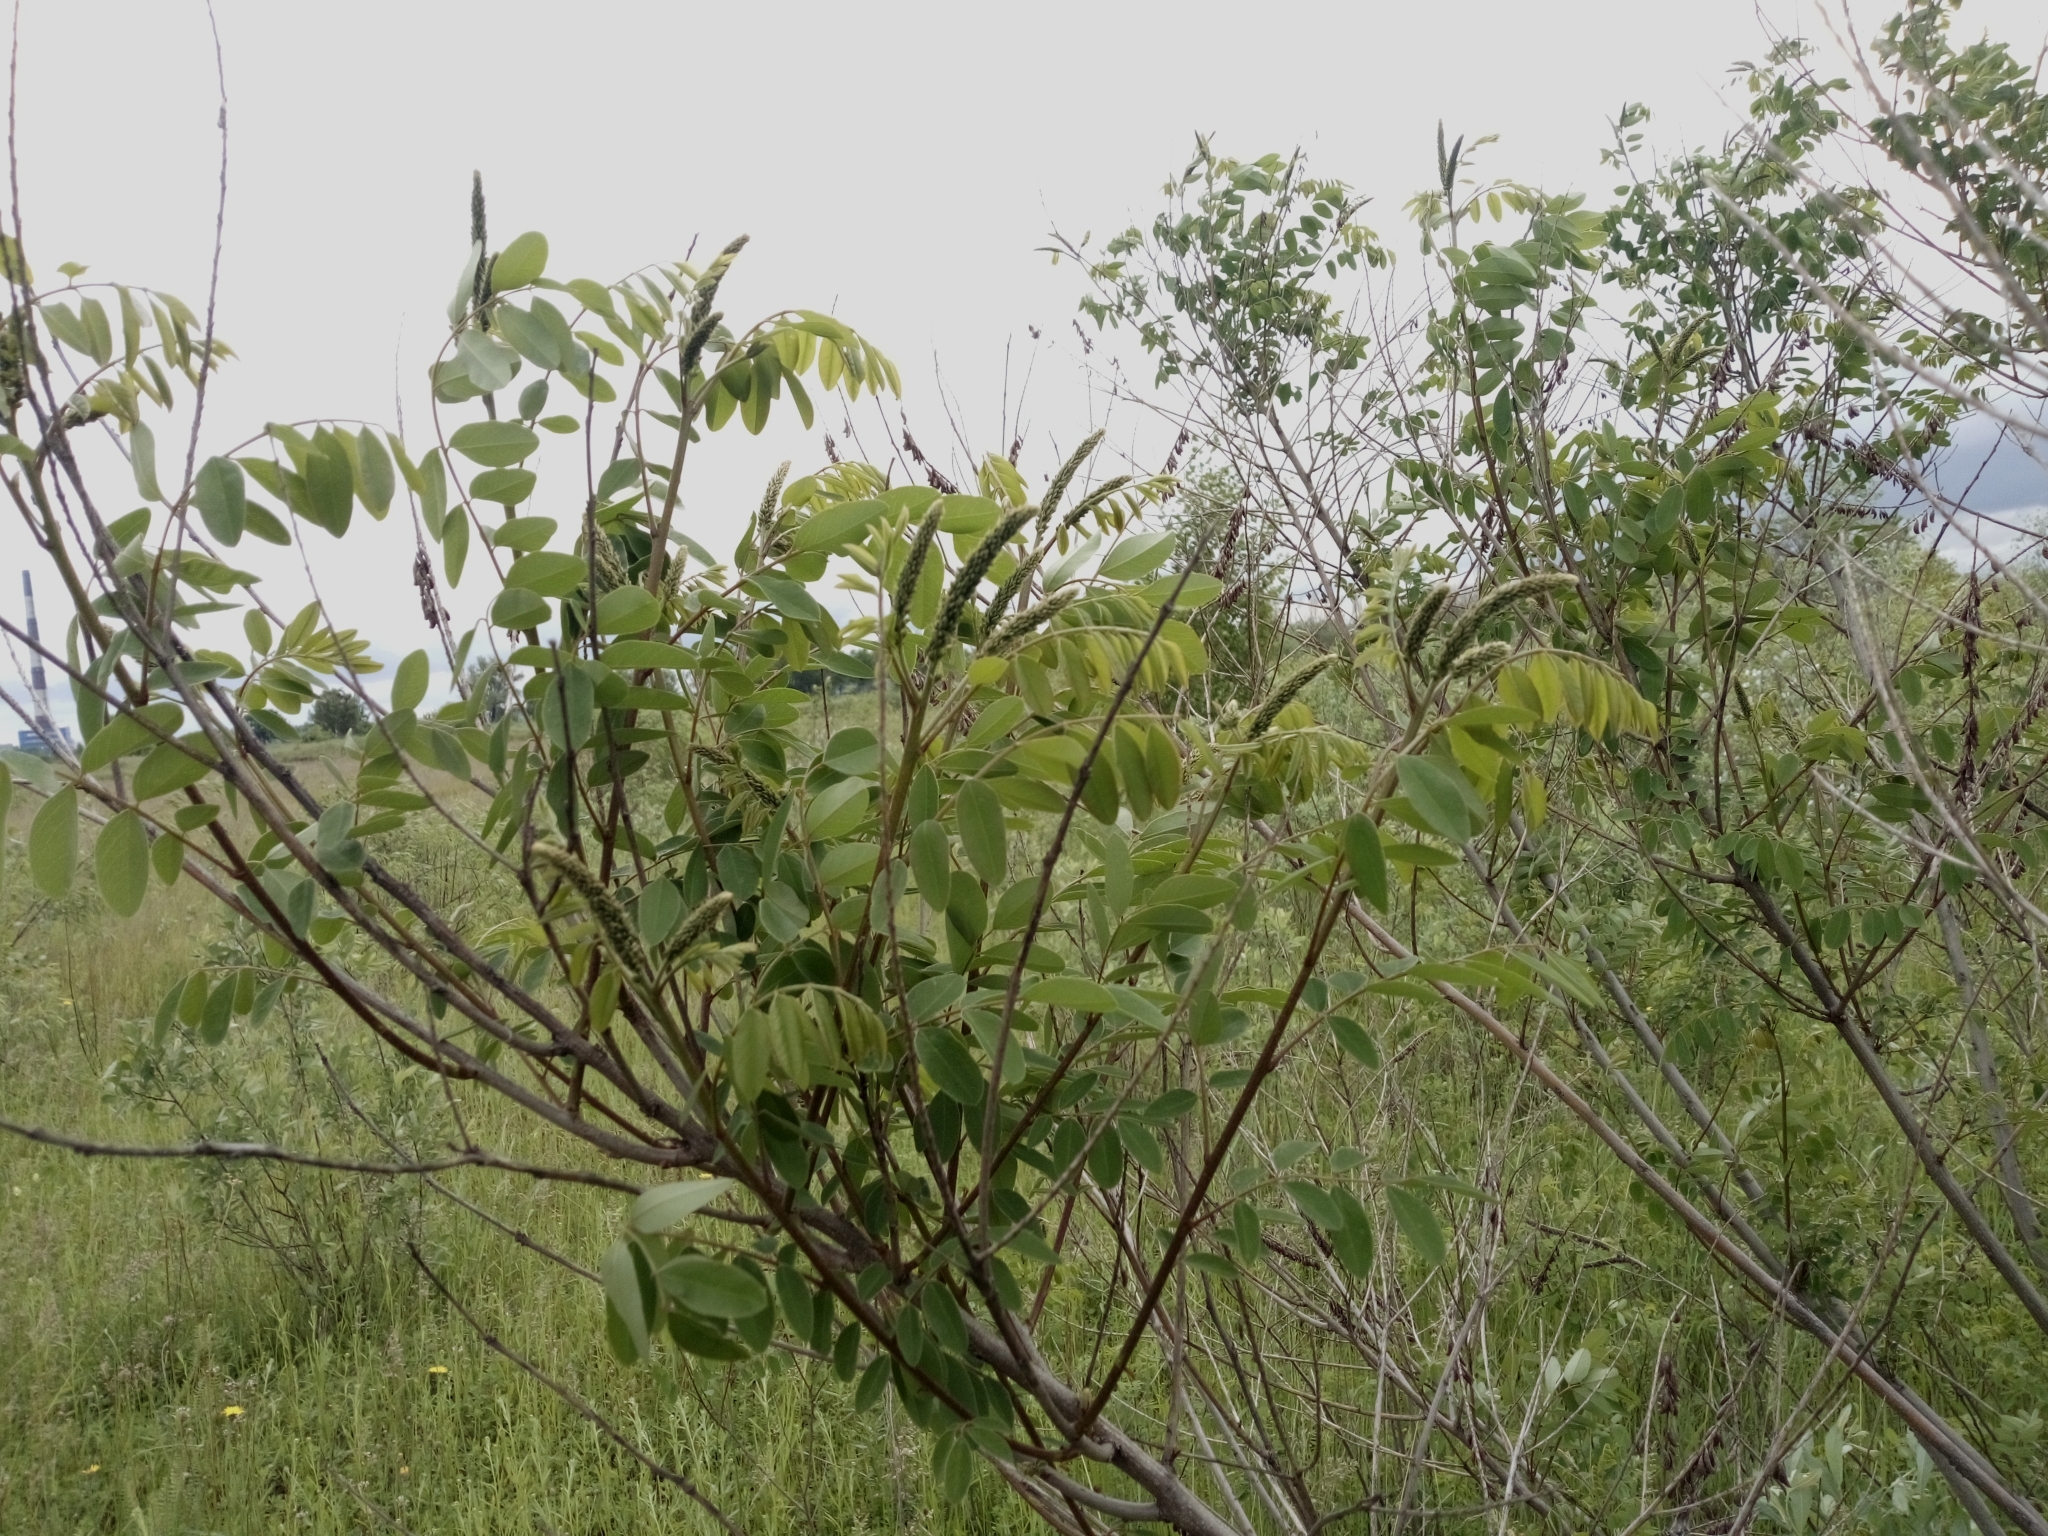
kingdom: Plantae
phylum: Tracheophyta
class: Magnoliopsida
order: Fabales
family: Fabaceae
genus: Amorpha
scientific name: Amorpha fruticosa
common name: False indigo
